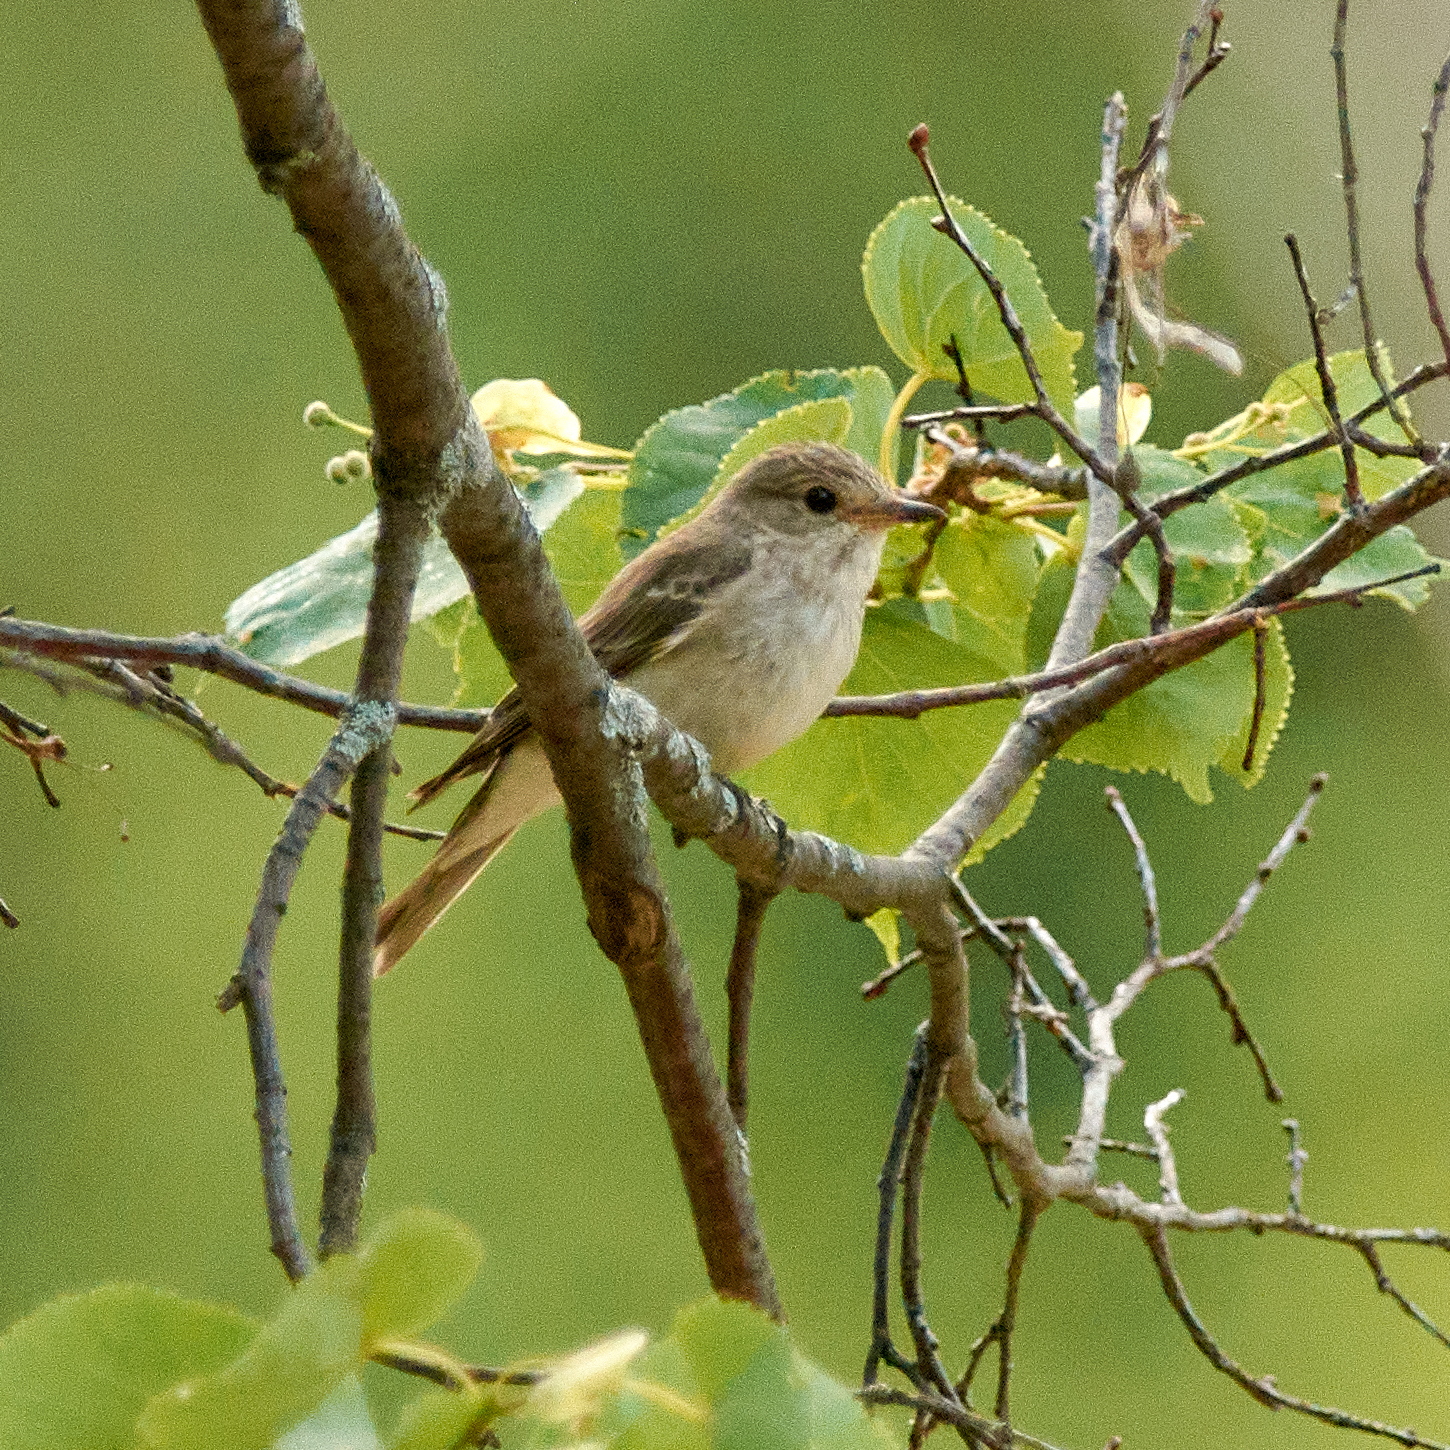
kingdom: Animalia
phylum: Chordata
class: Aves
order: Passeriformes
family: Muscicapidae
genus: Muscicapa
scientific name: Muscicapa striata
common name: Spotted flycatcher
